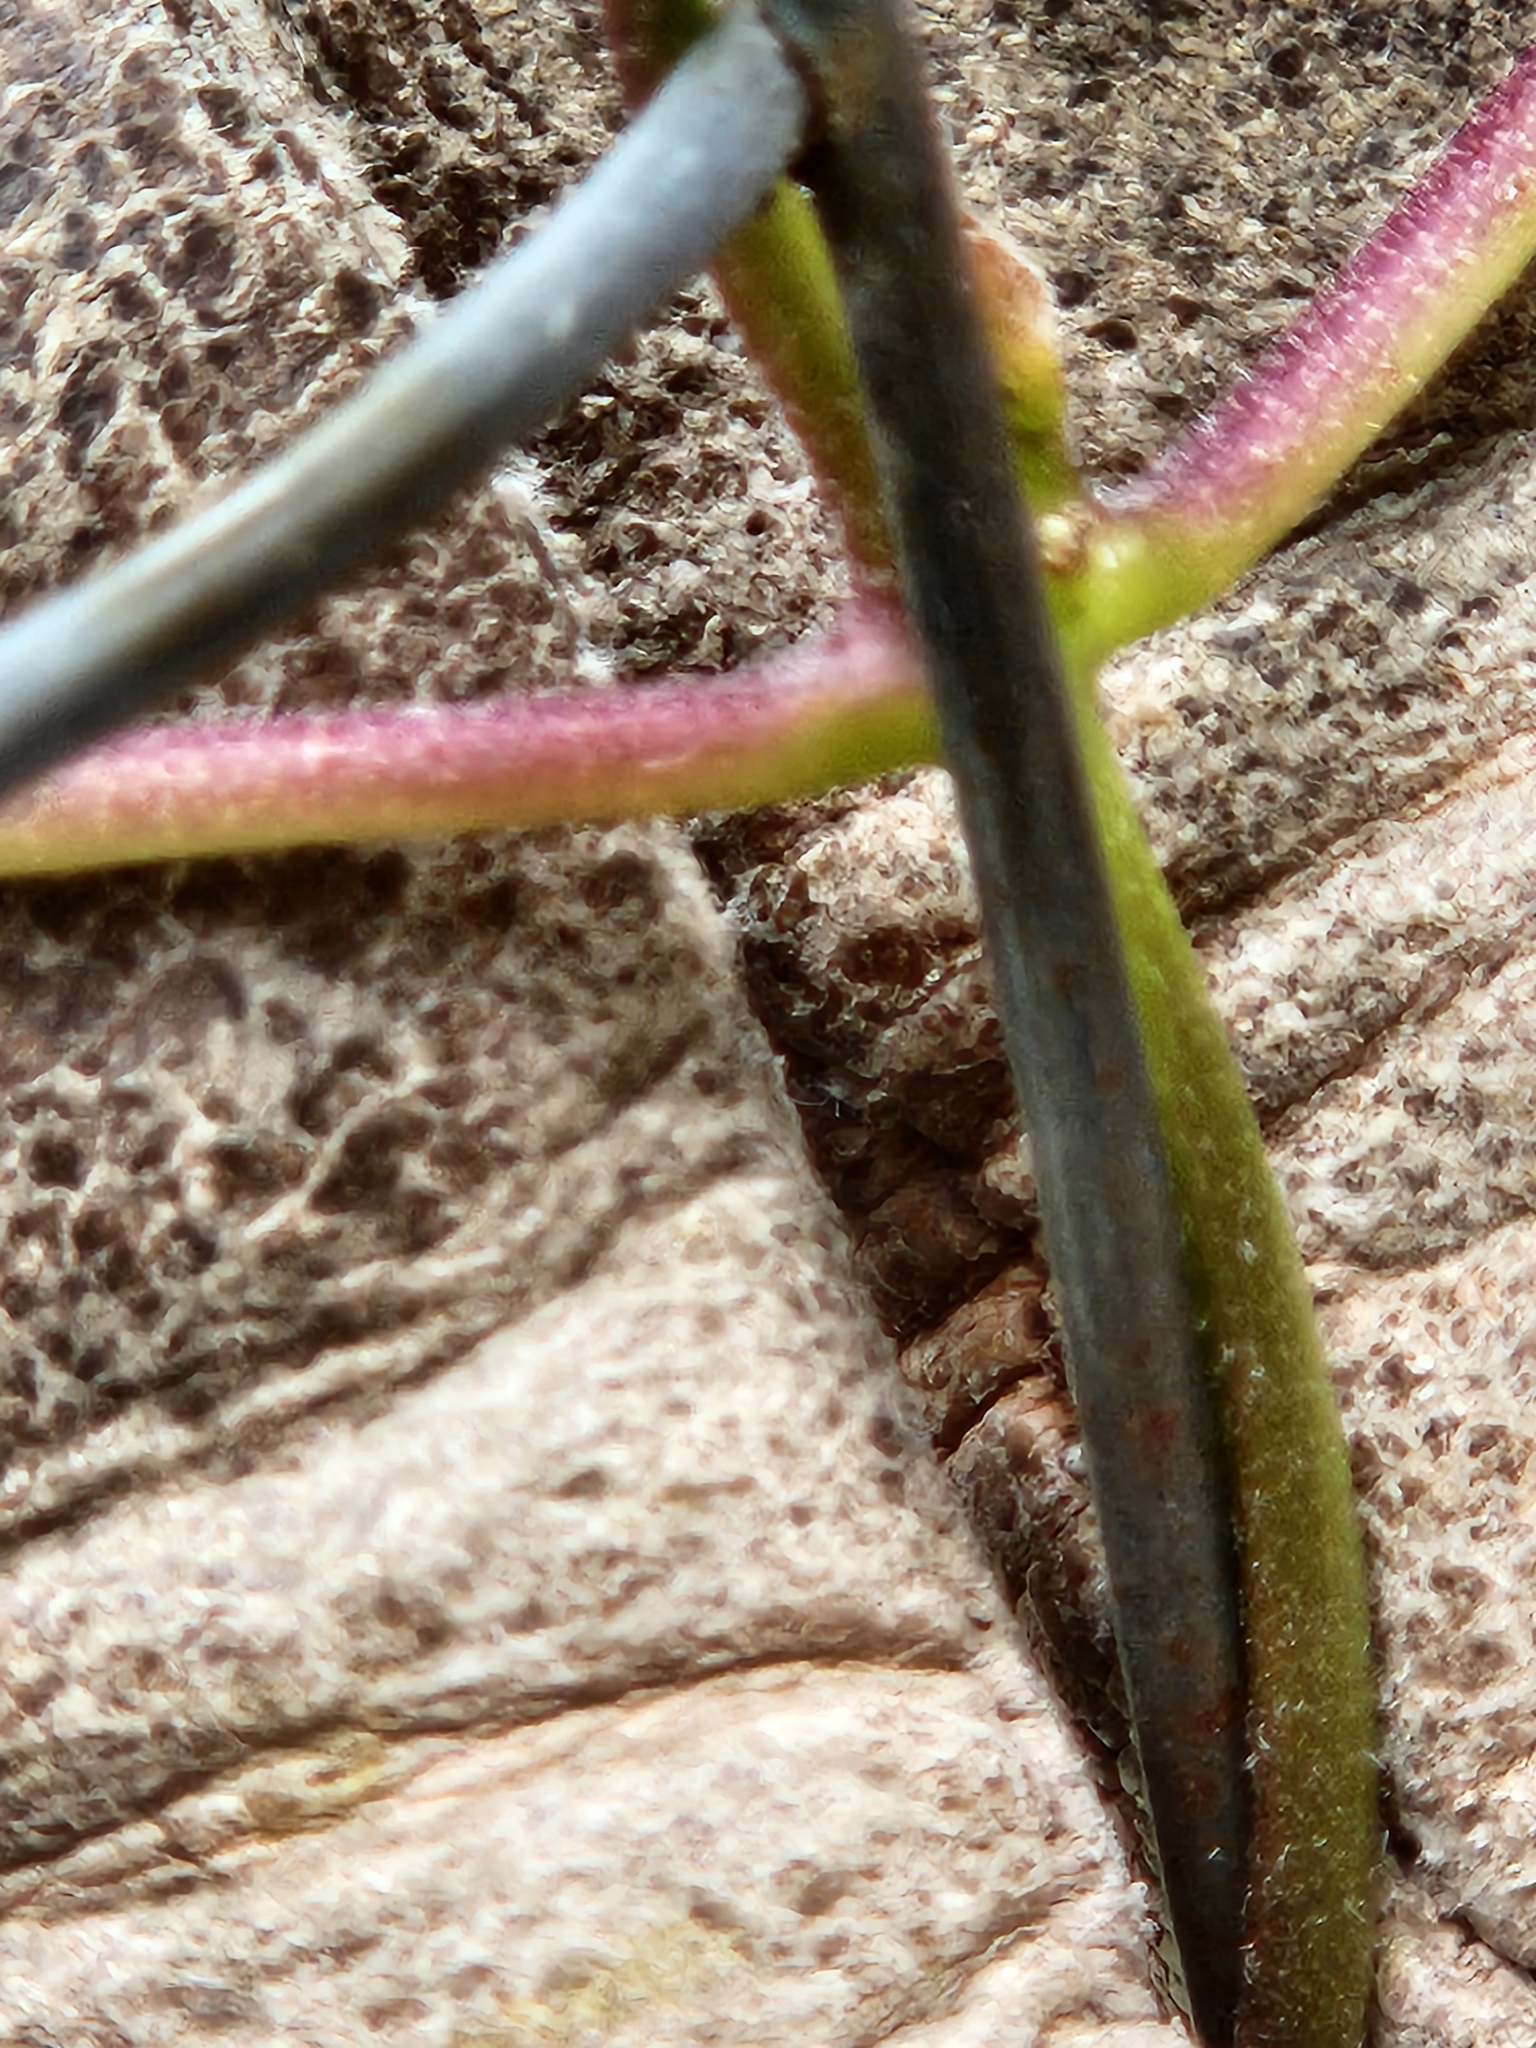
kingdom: Plantae
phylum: Tracheophyta
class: Magnoliopsida
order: Gentianales
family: Apocynaceae
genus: Matelea
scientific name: Matelea edwardsensis
